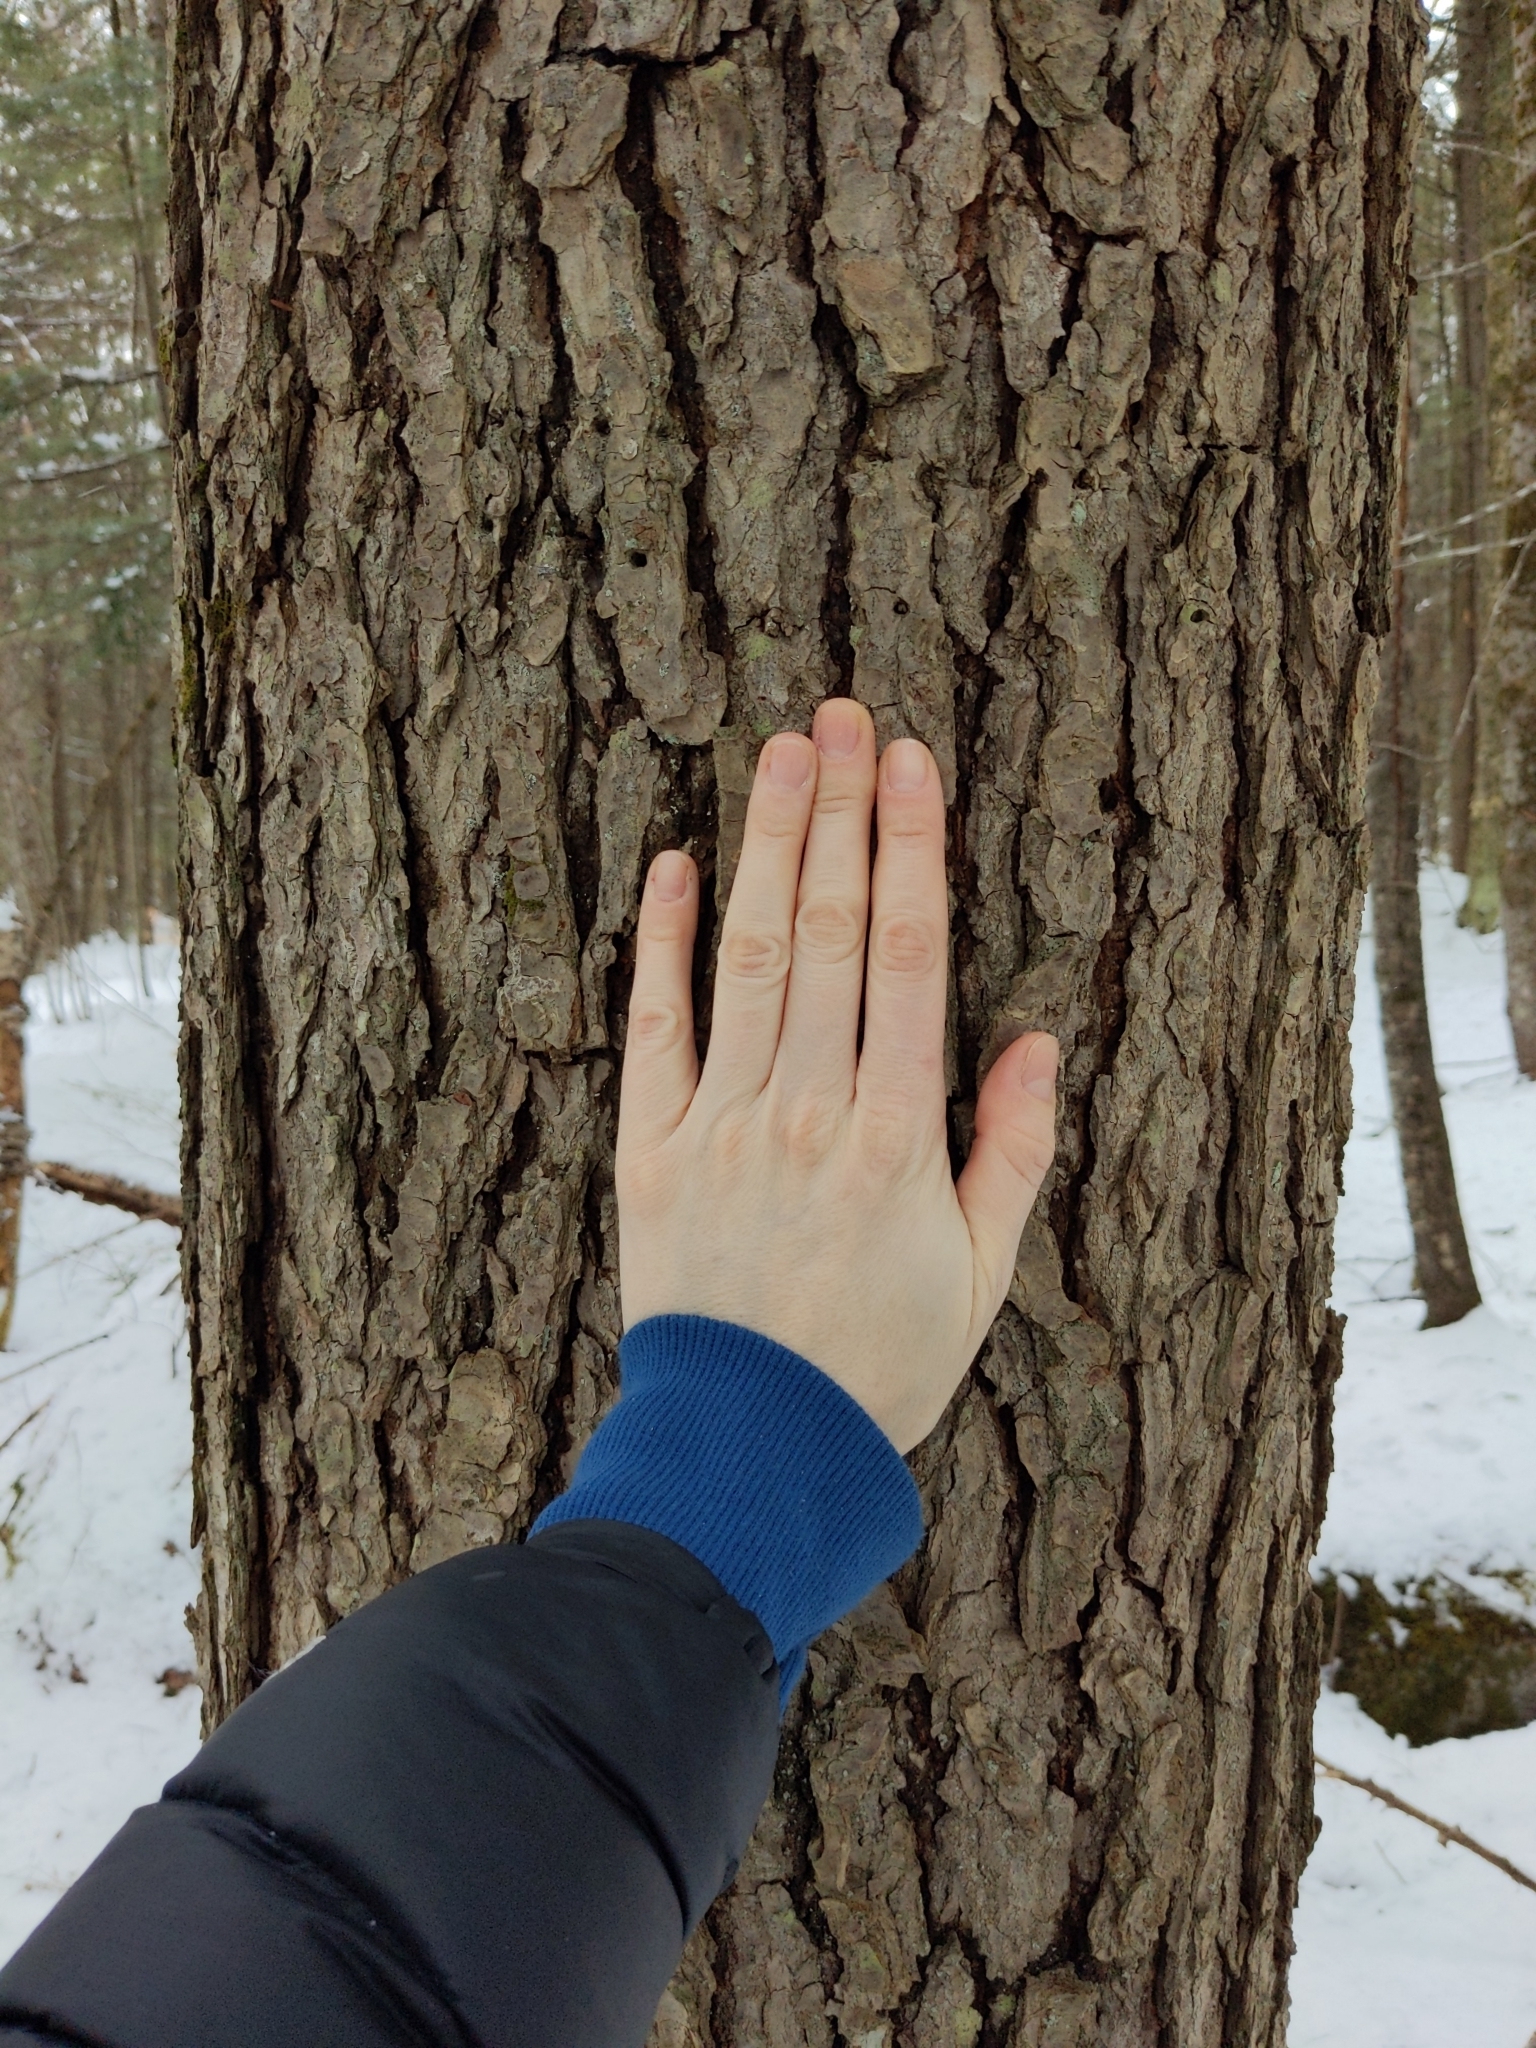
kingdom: Plantae
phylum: Tracheophyta
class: Pinopsida
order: Pinales
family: Pinaceae
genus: Tsuga
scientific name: Tsuga canadensis
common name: Eastern hemlock
